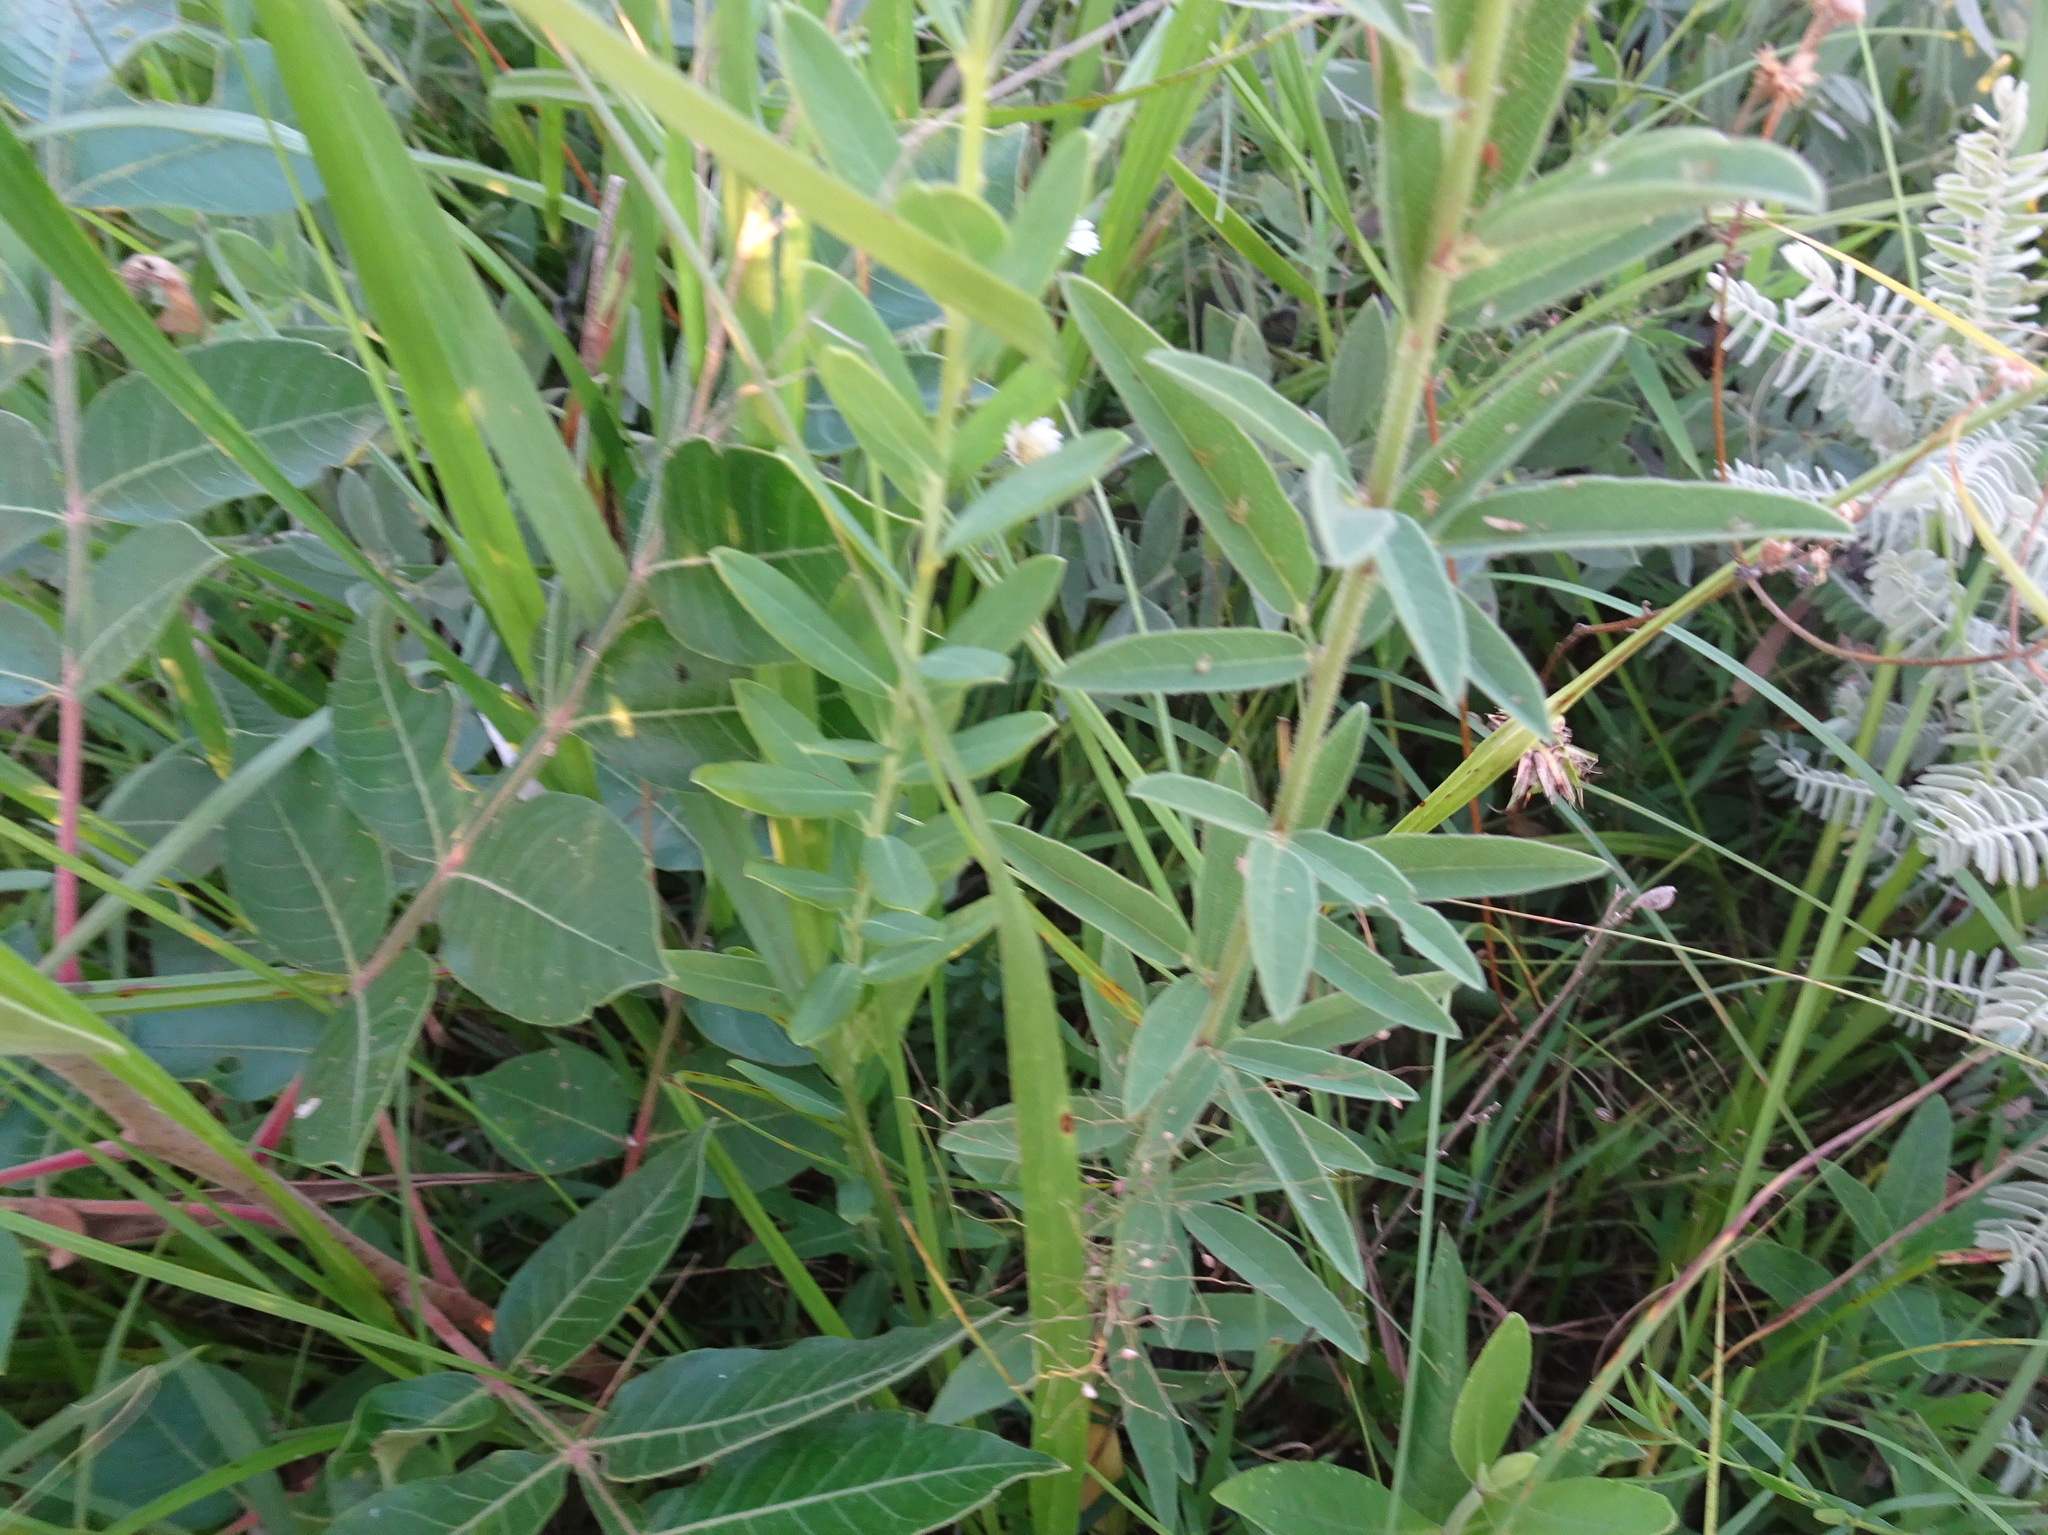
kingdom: Plantae
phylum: Tracheophyta
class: Magnoliopsida
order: Fabales
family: Fabaceae
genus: Desmodium
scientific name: Desmodium sessilifolium
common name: Sessile tick-clover
